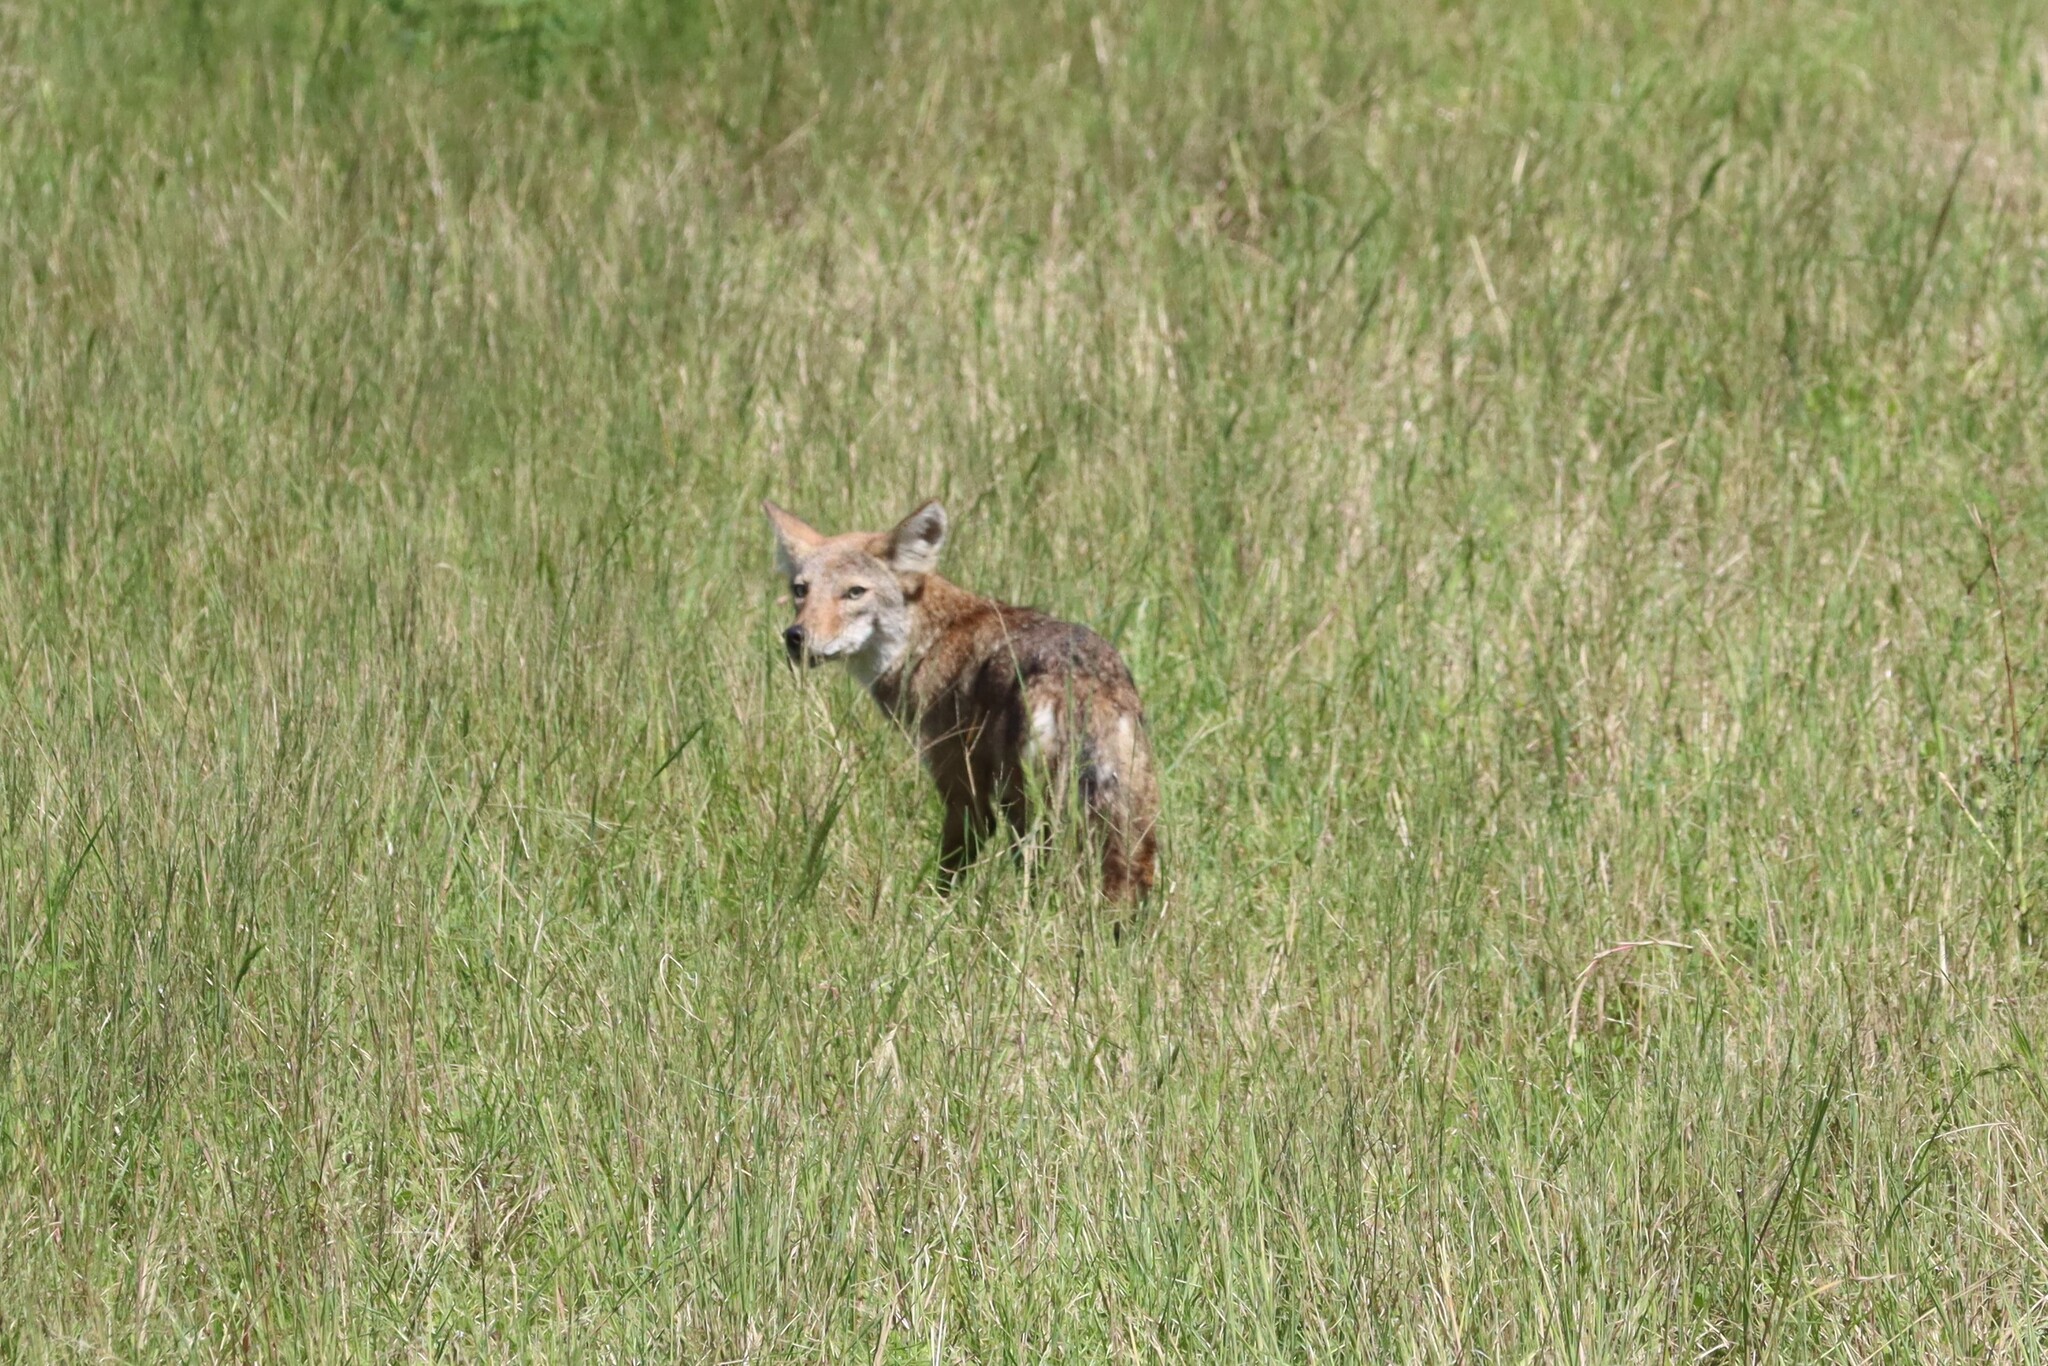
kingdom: Animalia
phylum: Chordata
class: Mammalia
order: Carnivora
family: Canidae
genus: Canis
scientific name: Canis latrans
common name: Coyote
